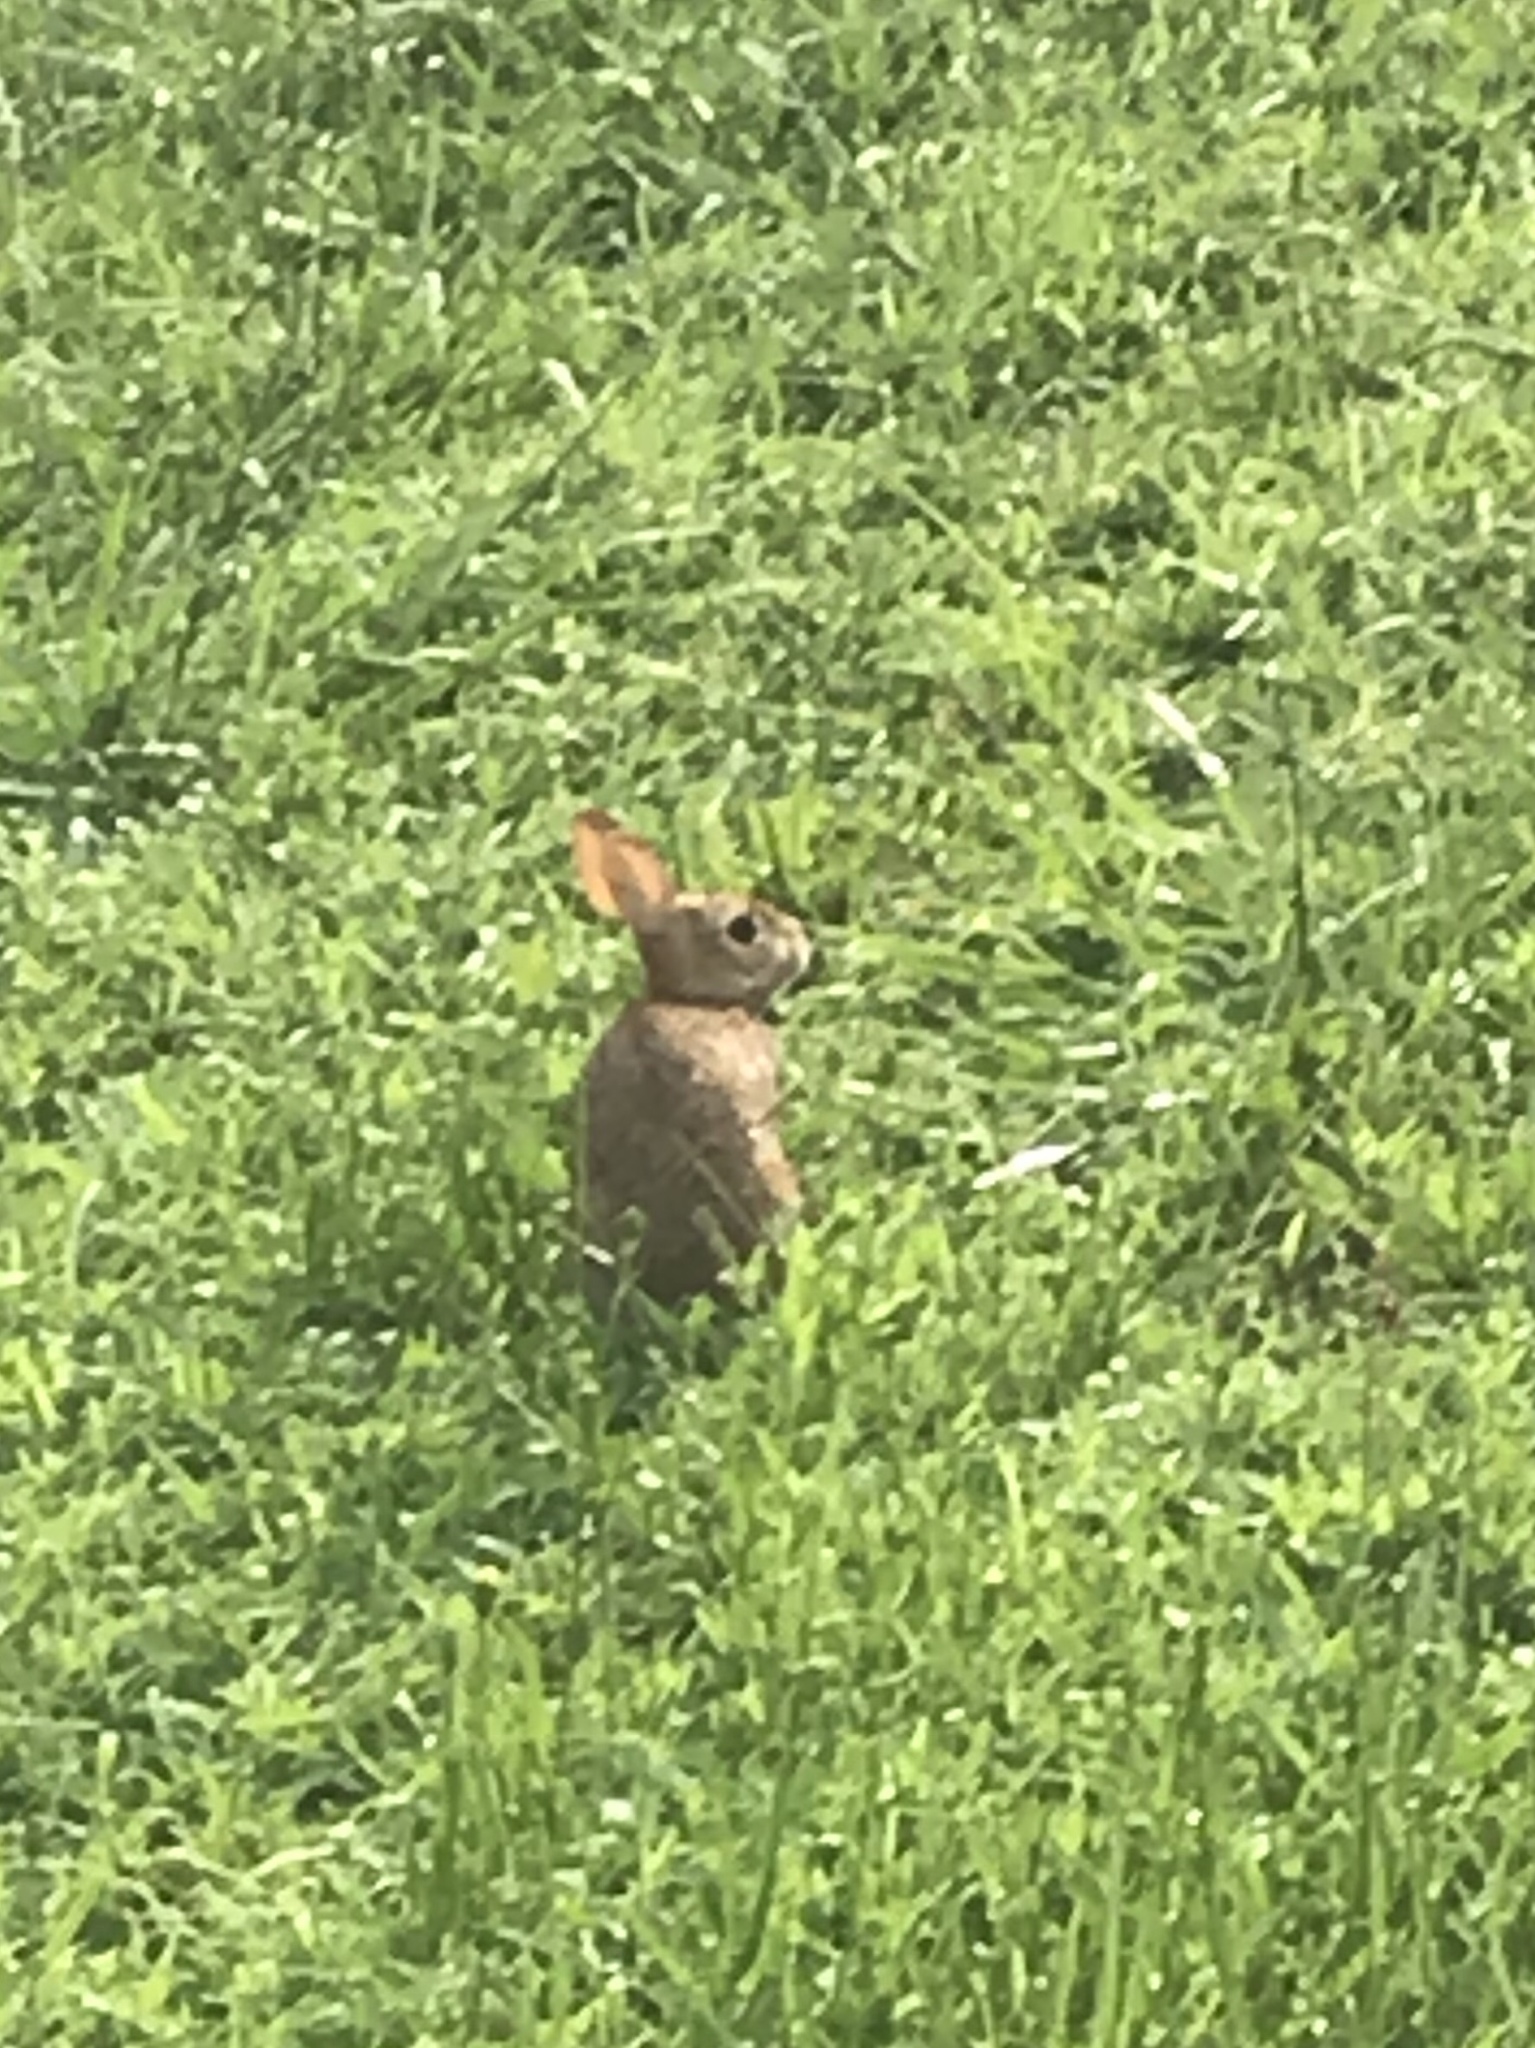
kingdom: Animalia
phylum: Chordata
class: Mammalia
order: Lagomorpha
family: Leporidae
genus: Sylvilagus
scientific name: Sylvilagus floridanus
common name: Eastern cottontail
